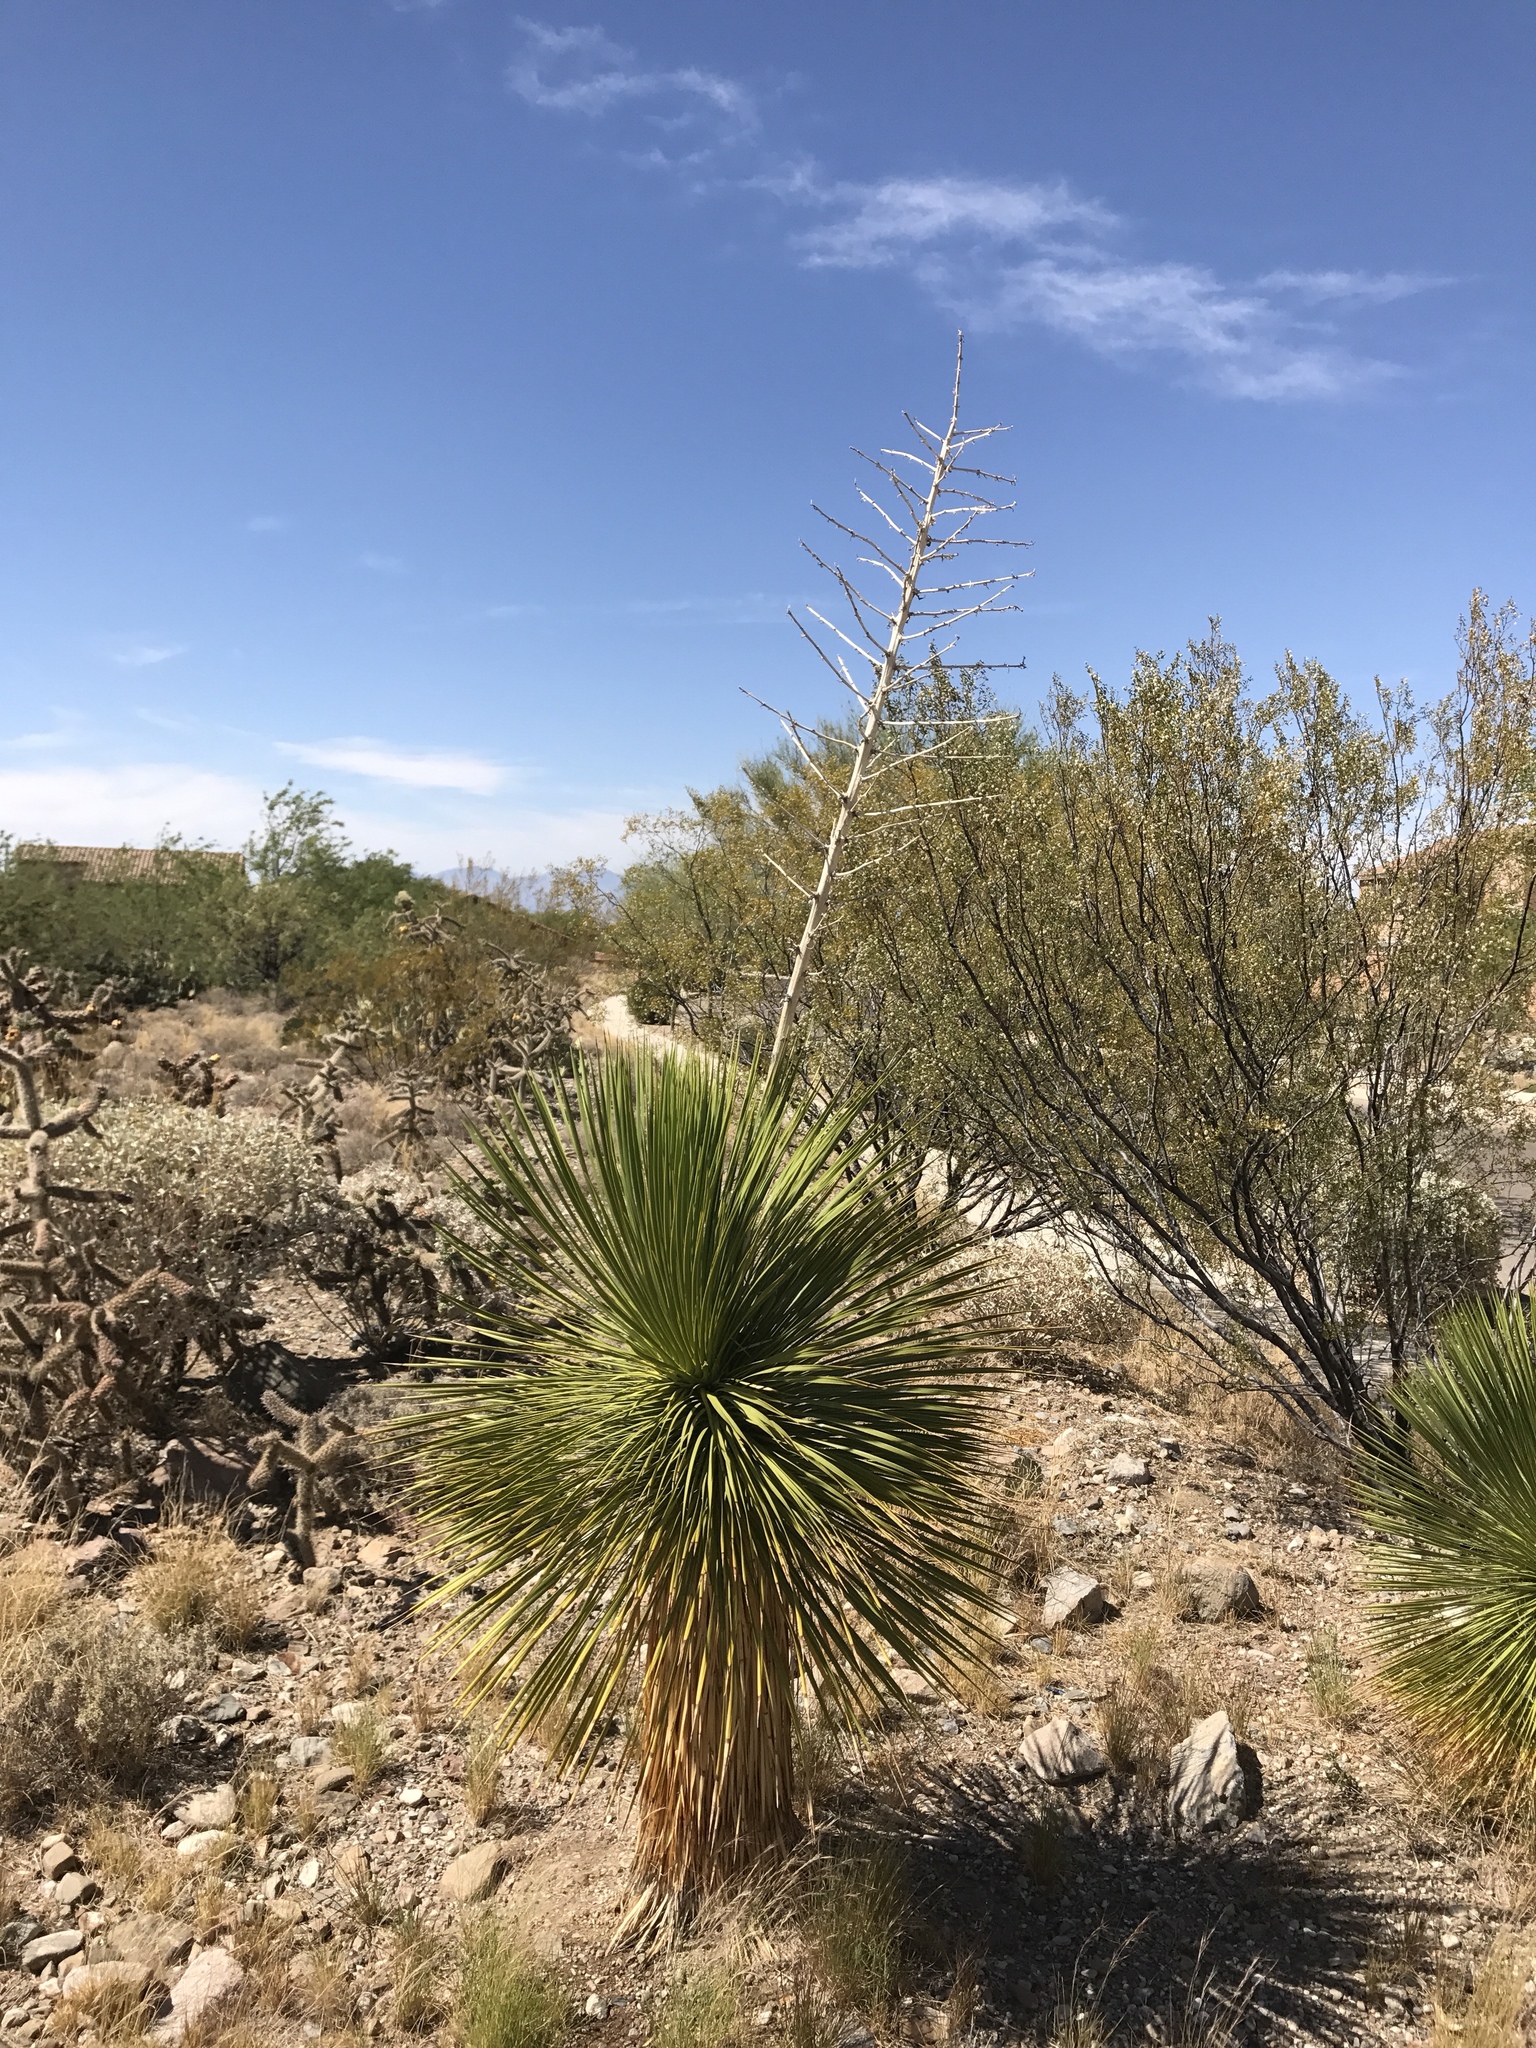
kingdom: Plantae
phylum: Tracheophyta
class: Liliopsida
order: Asparagales
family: Asparagaceae
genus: Yucca
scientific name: Yucca elata
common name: Palmella
